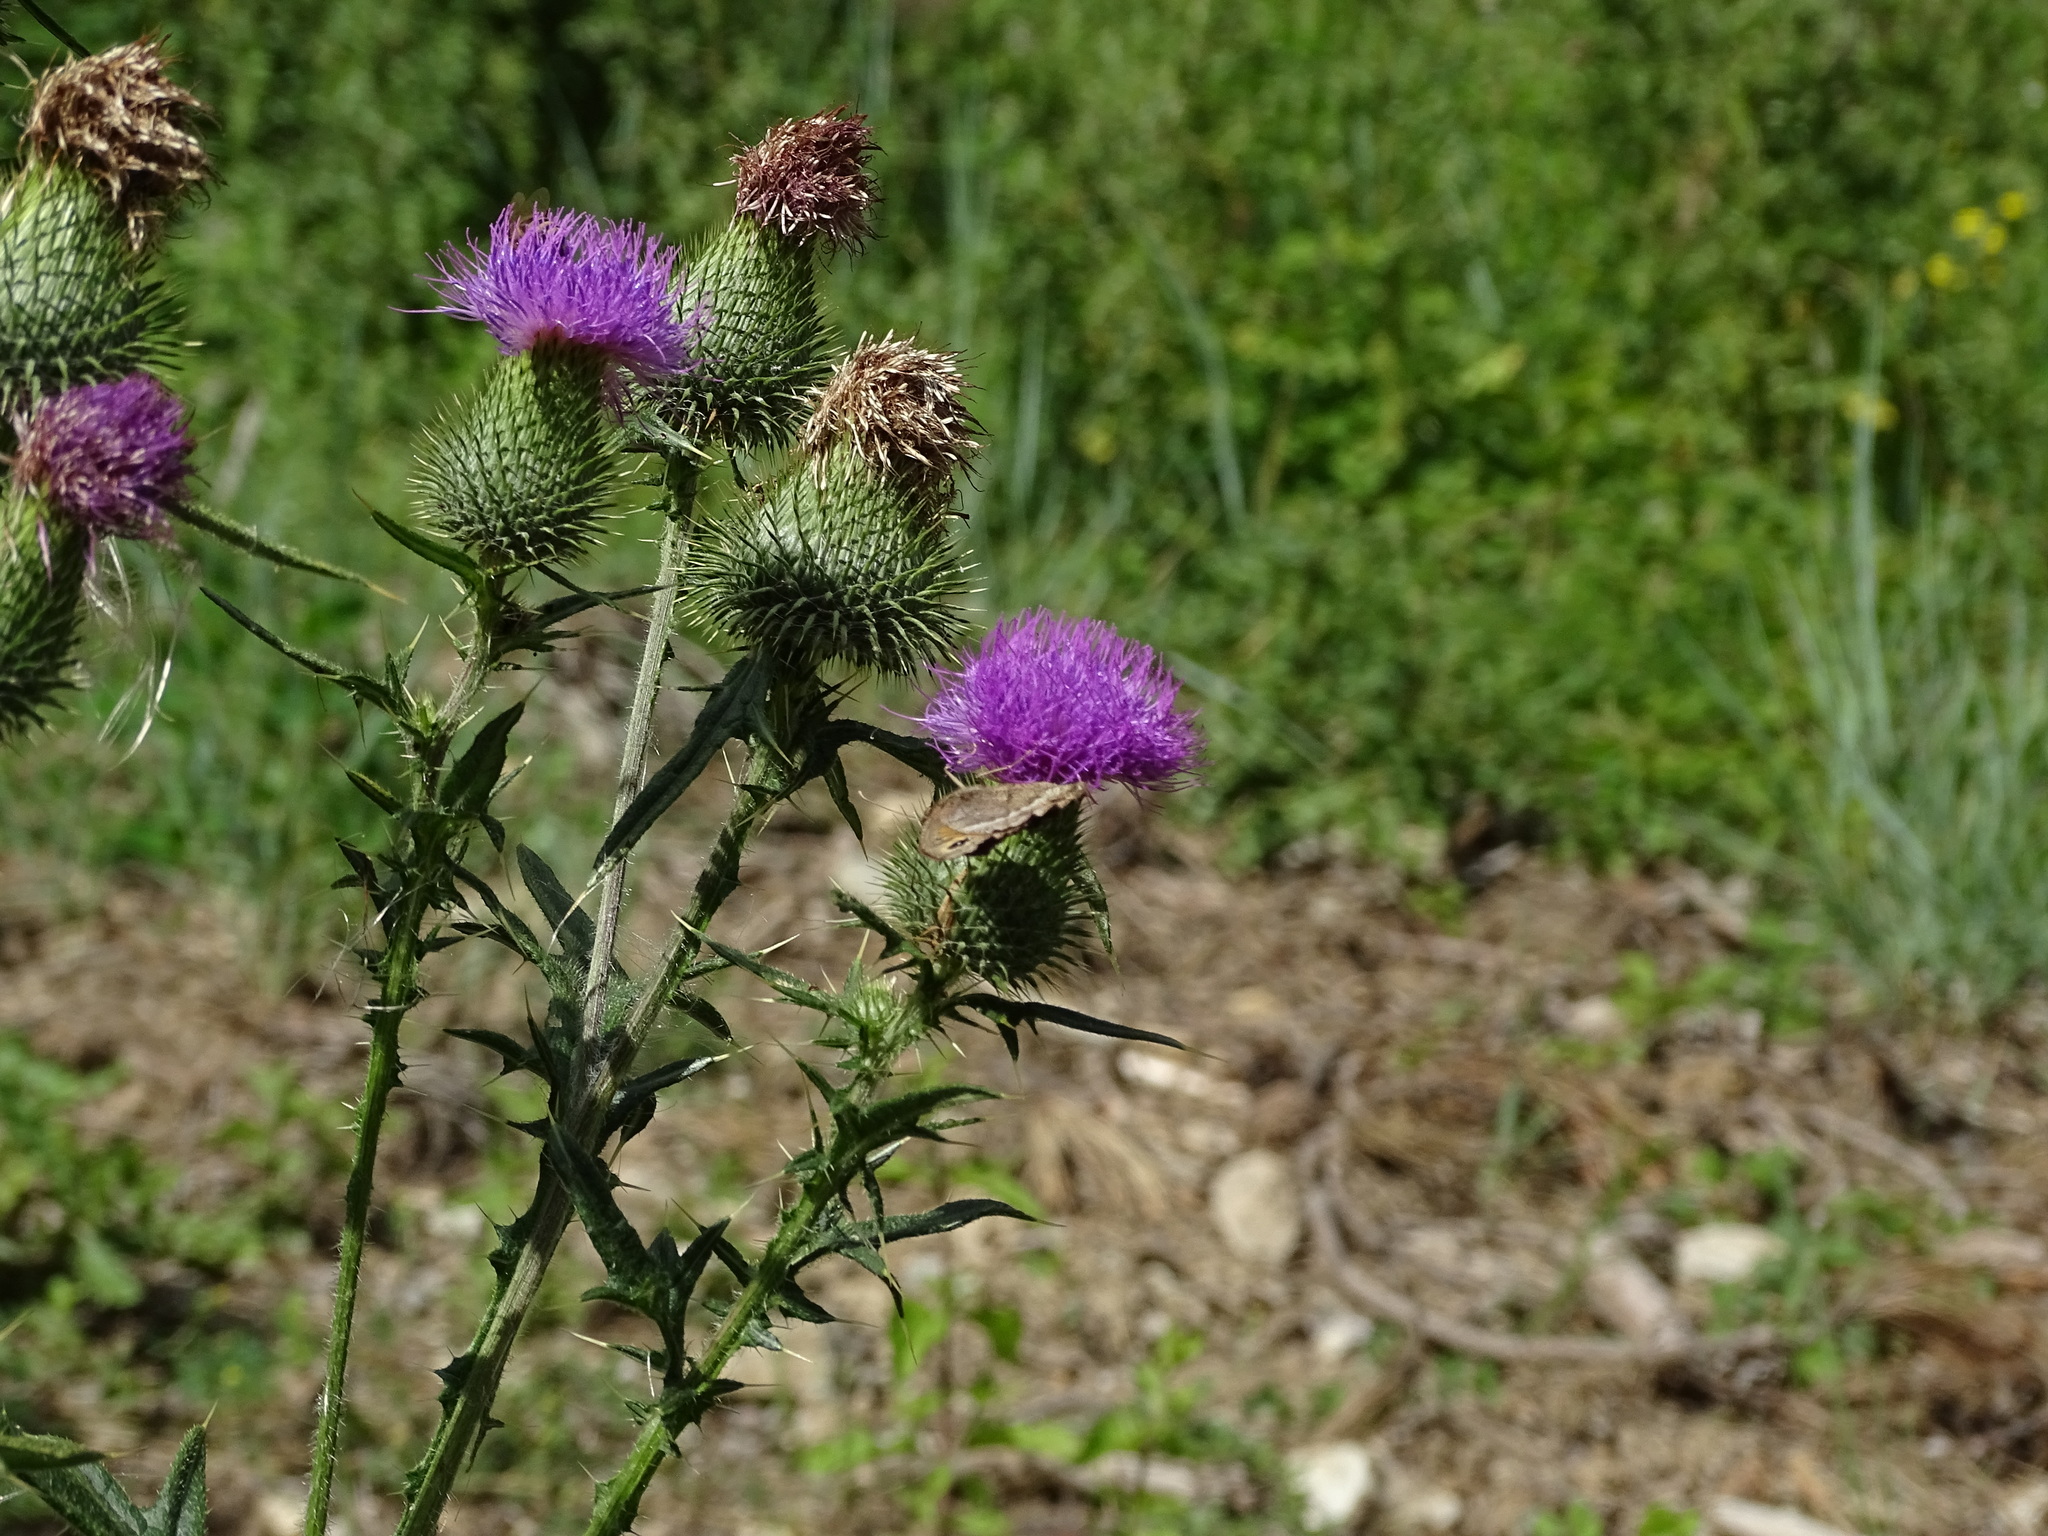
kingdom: Animalia
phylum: Arthropoda
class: Insecta
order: Lepidoptera
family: Nymphalidae
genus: Satyrus
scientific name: Satyrus ferula
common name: Great sooty satyr
